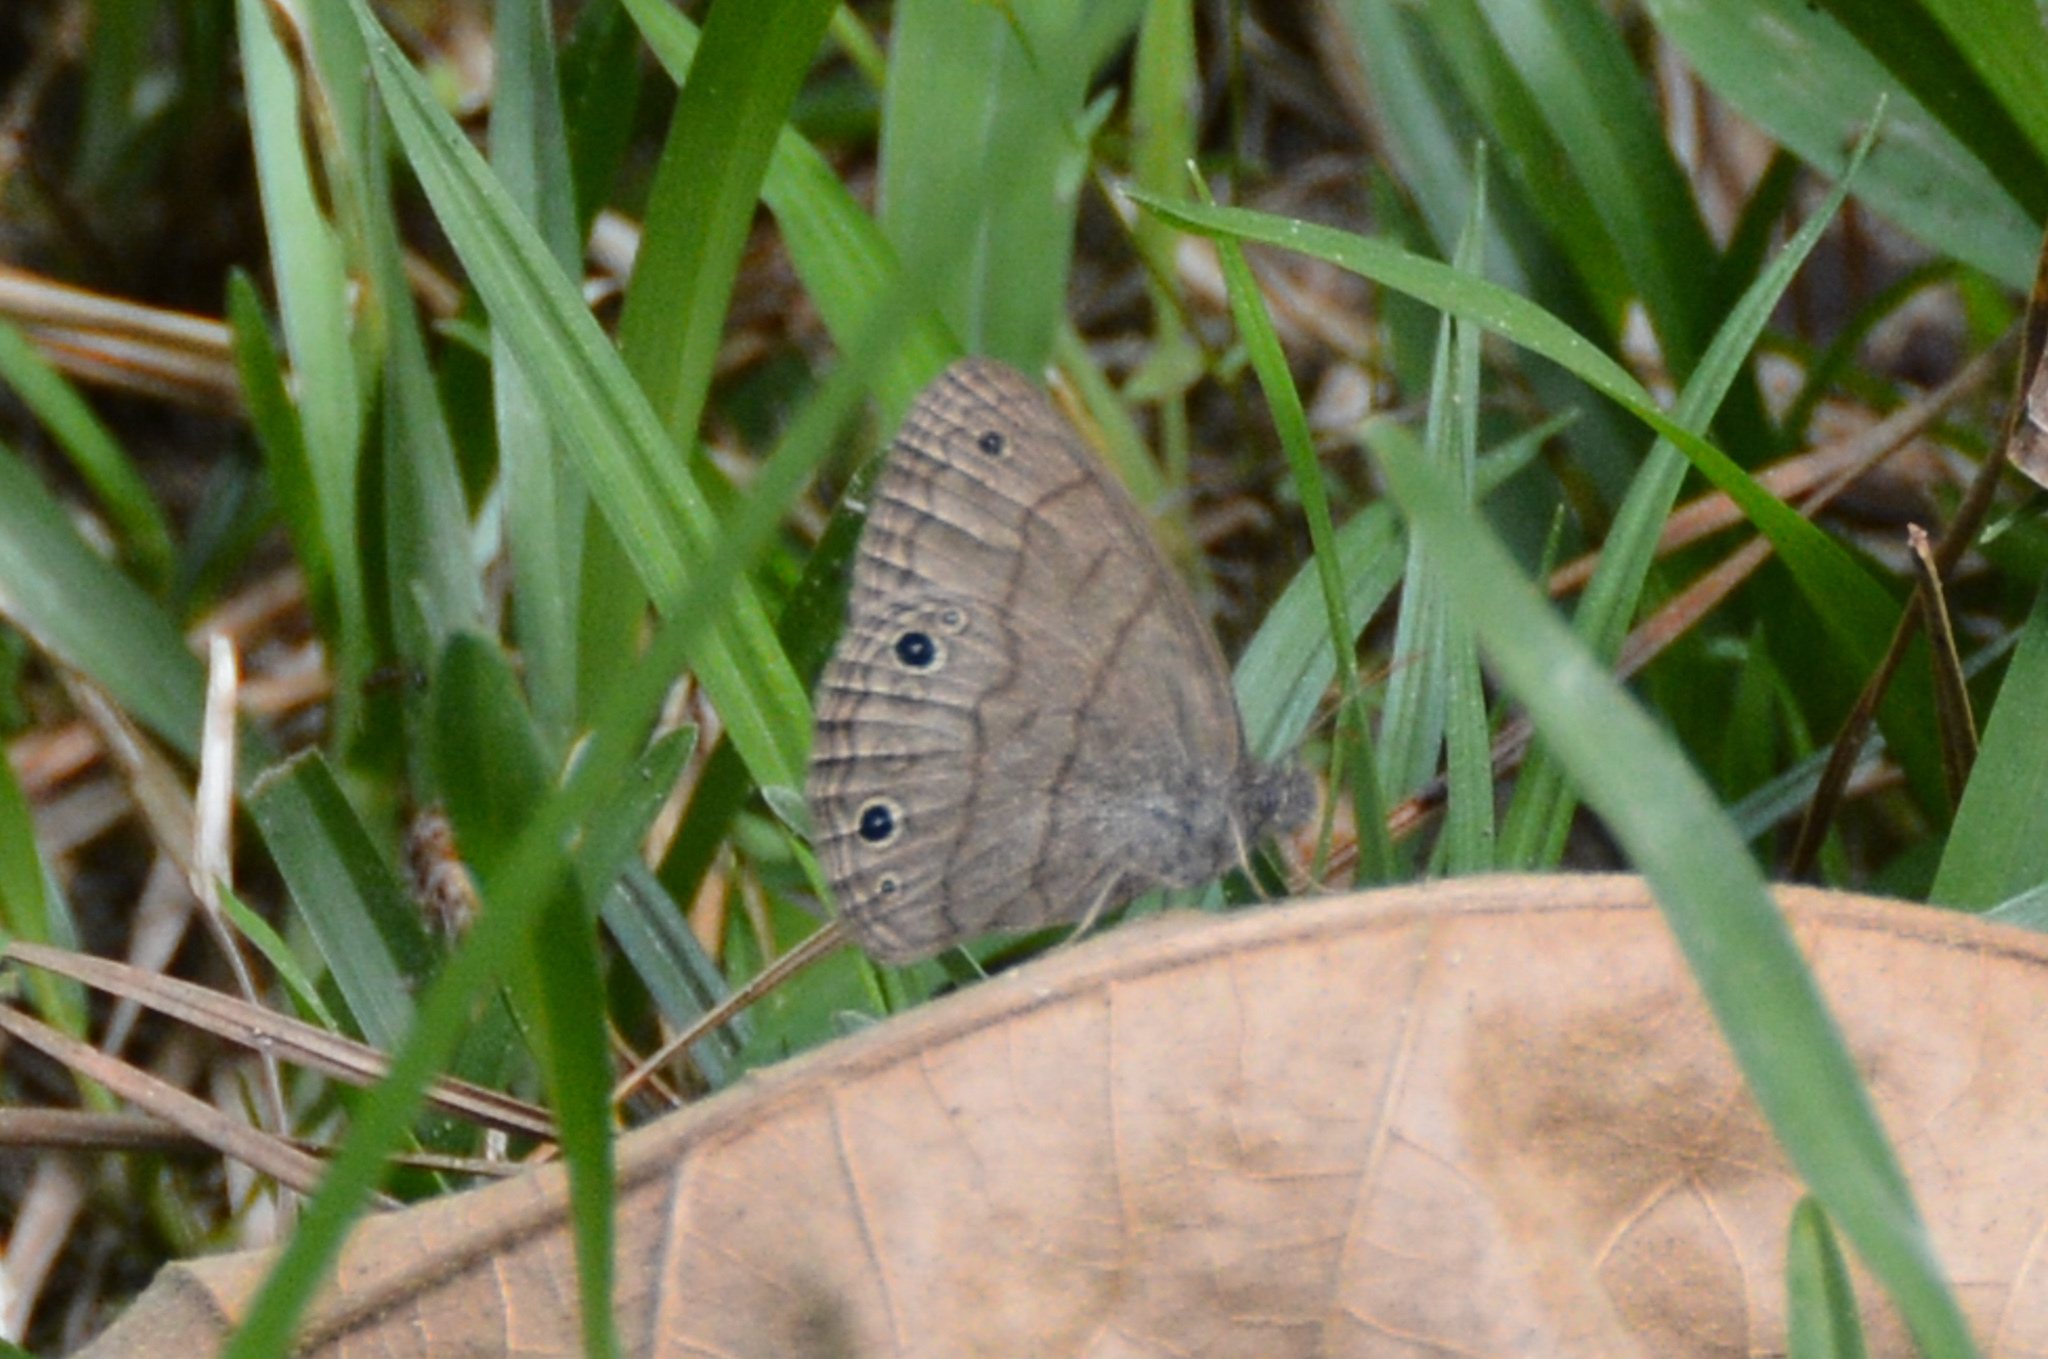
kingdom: Animalia
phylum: Arthropoda
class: Insecta
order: Lepidoptera
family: Nymphalidae
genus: Hermeuptychia
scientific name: Hermeuptychia hermes
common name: Hermes satyr
